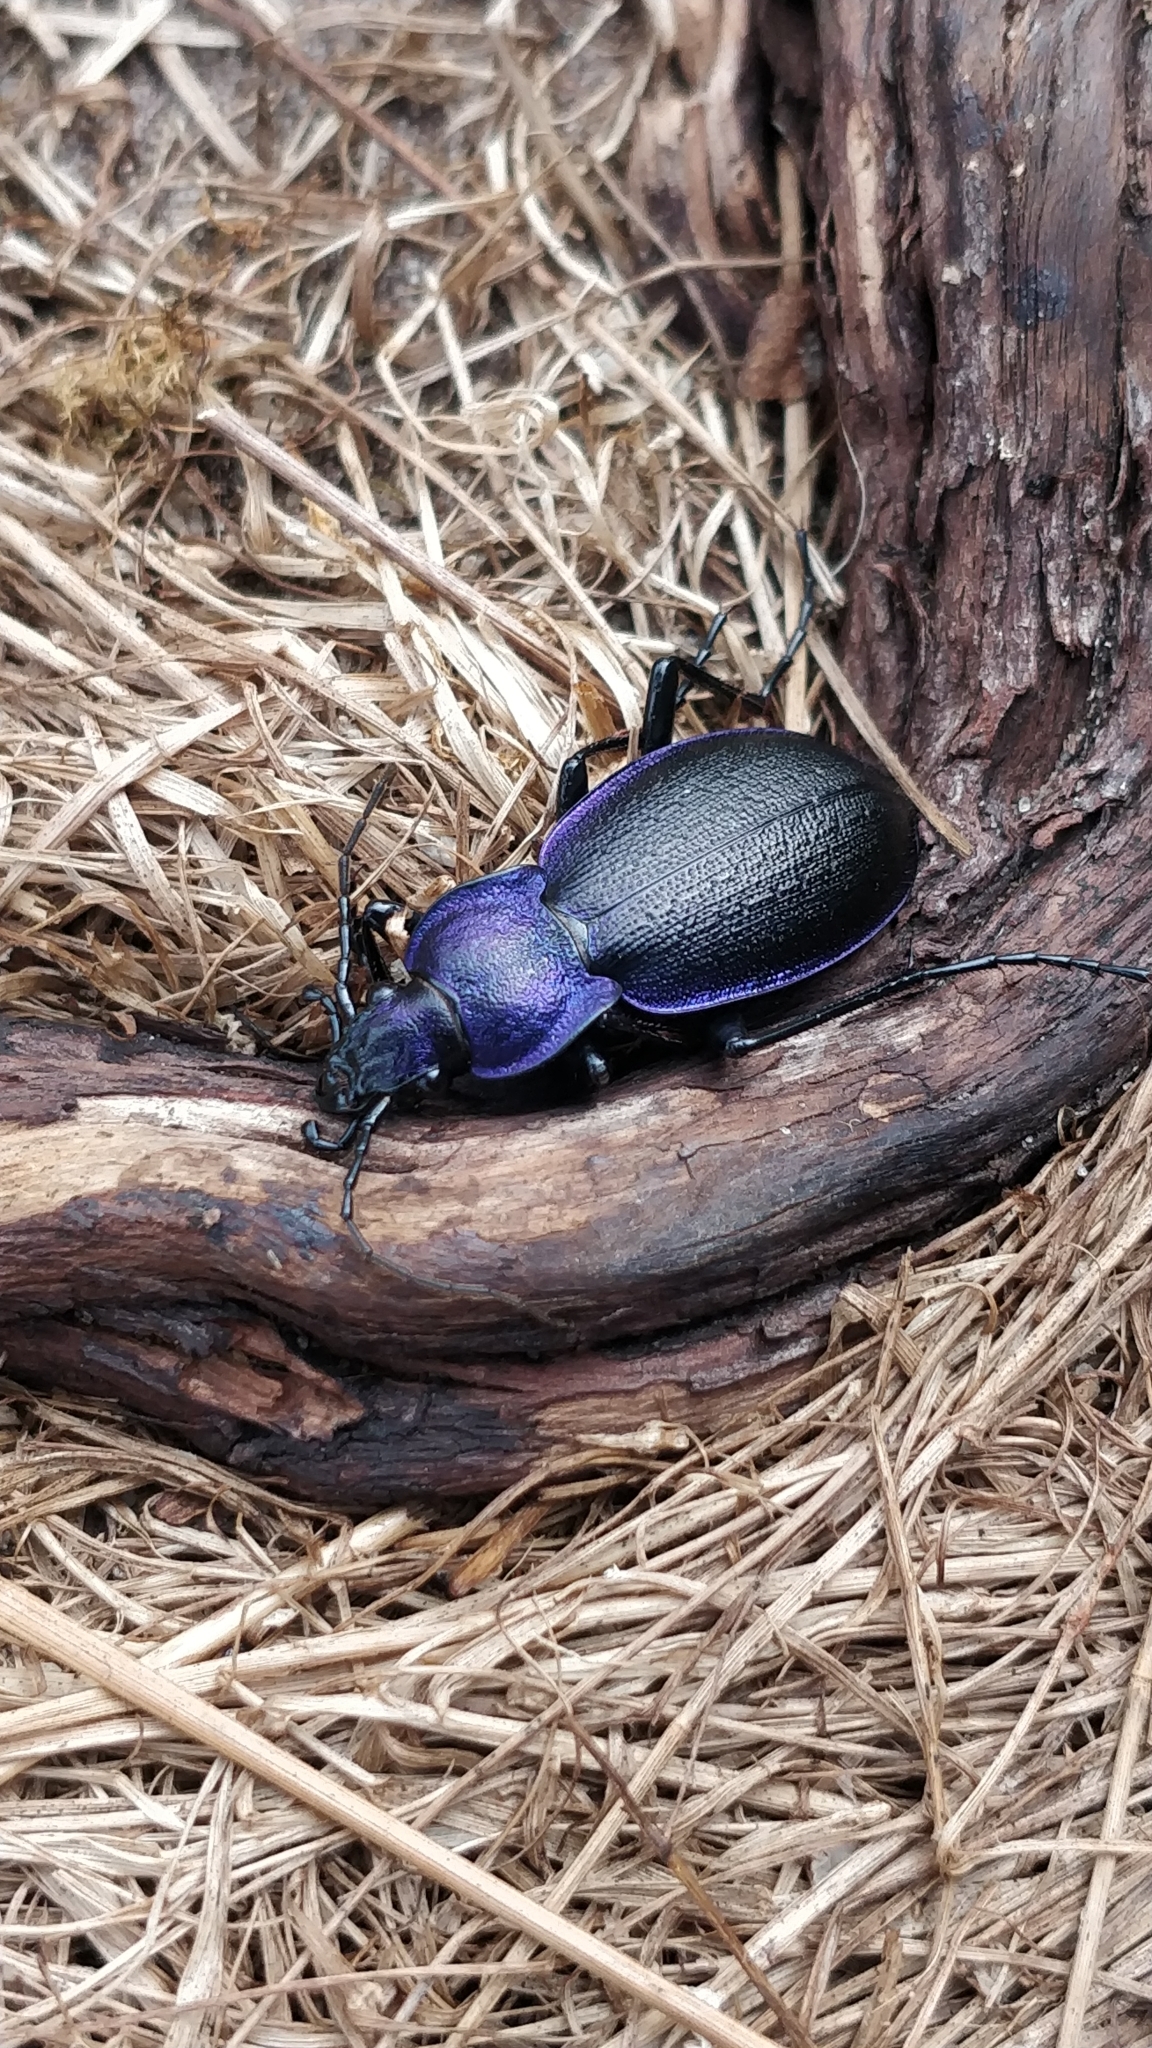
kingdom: Animalia
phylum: Arthropoda
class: Insecta
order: Coleoptera
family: Carabidae
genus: Carabus
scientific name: Carabus problematicus
